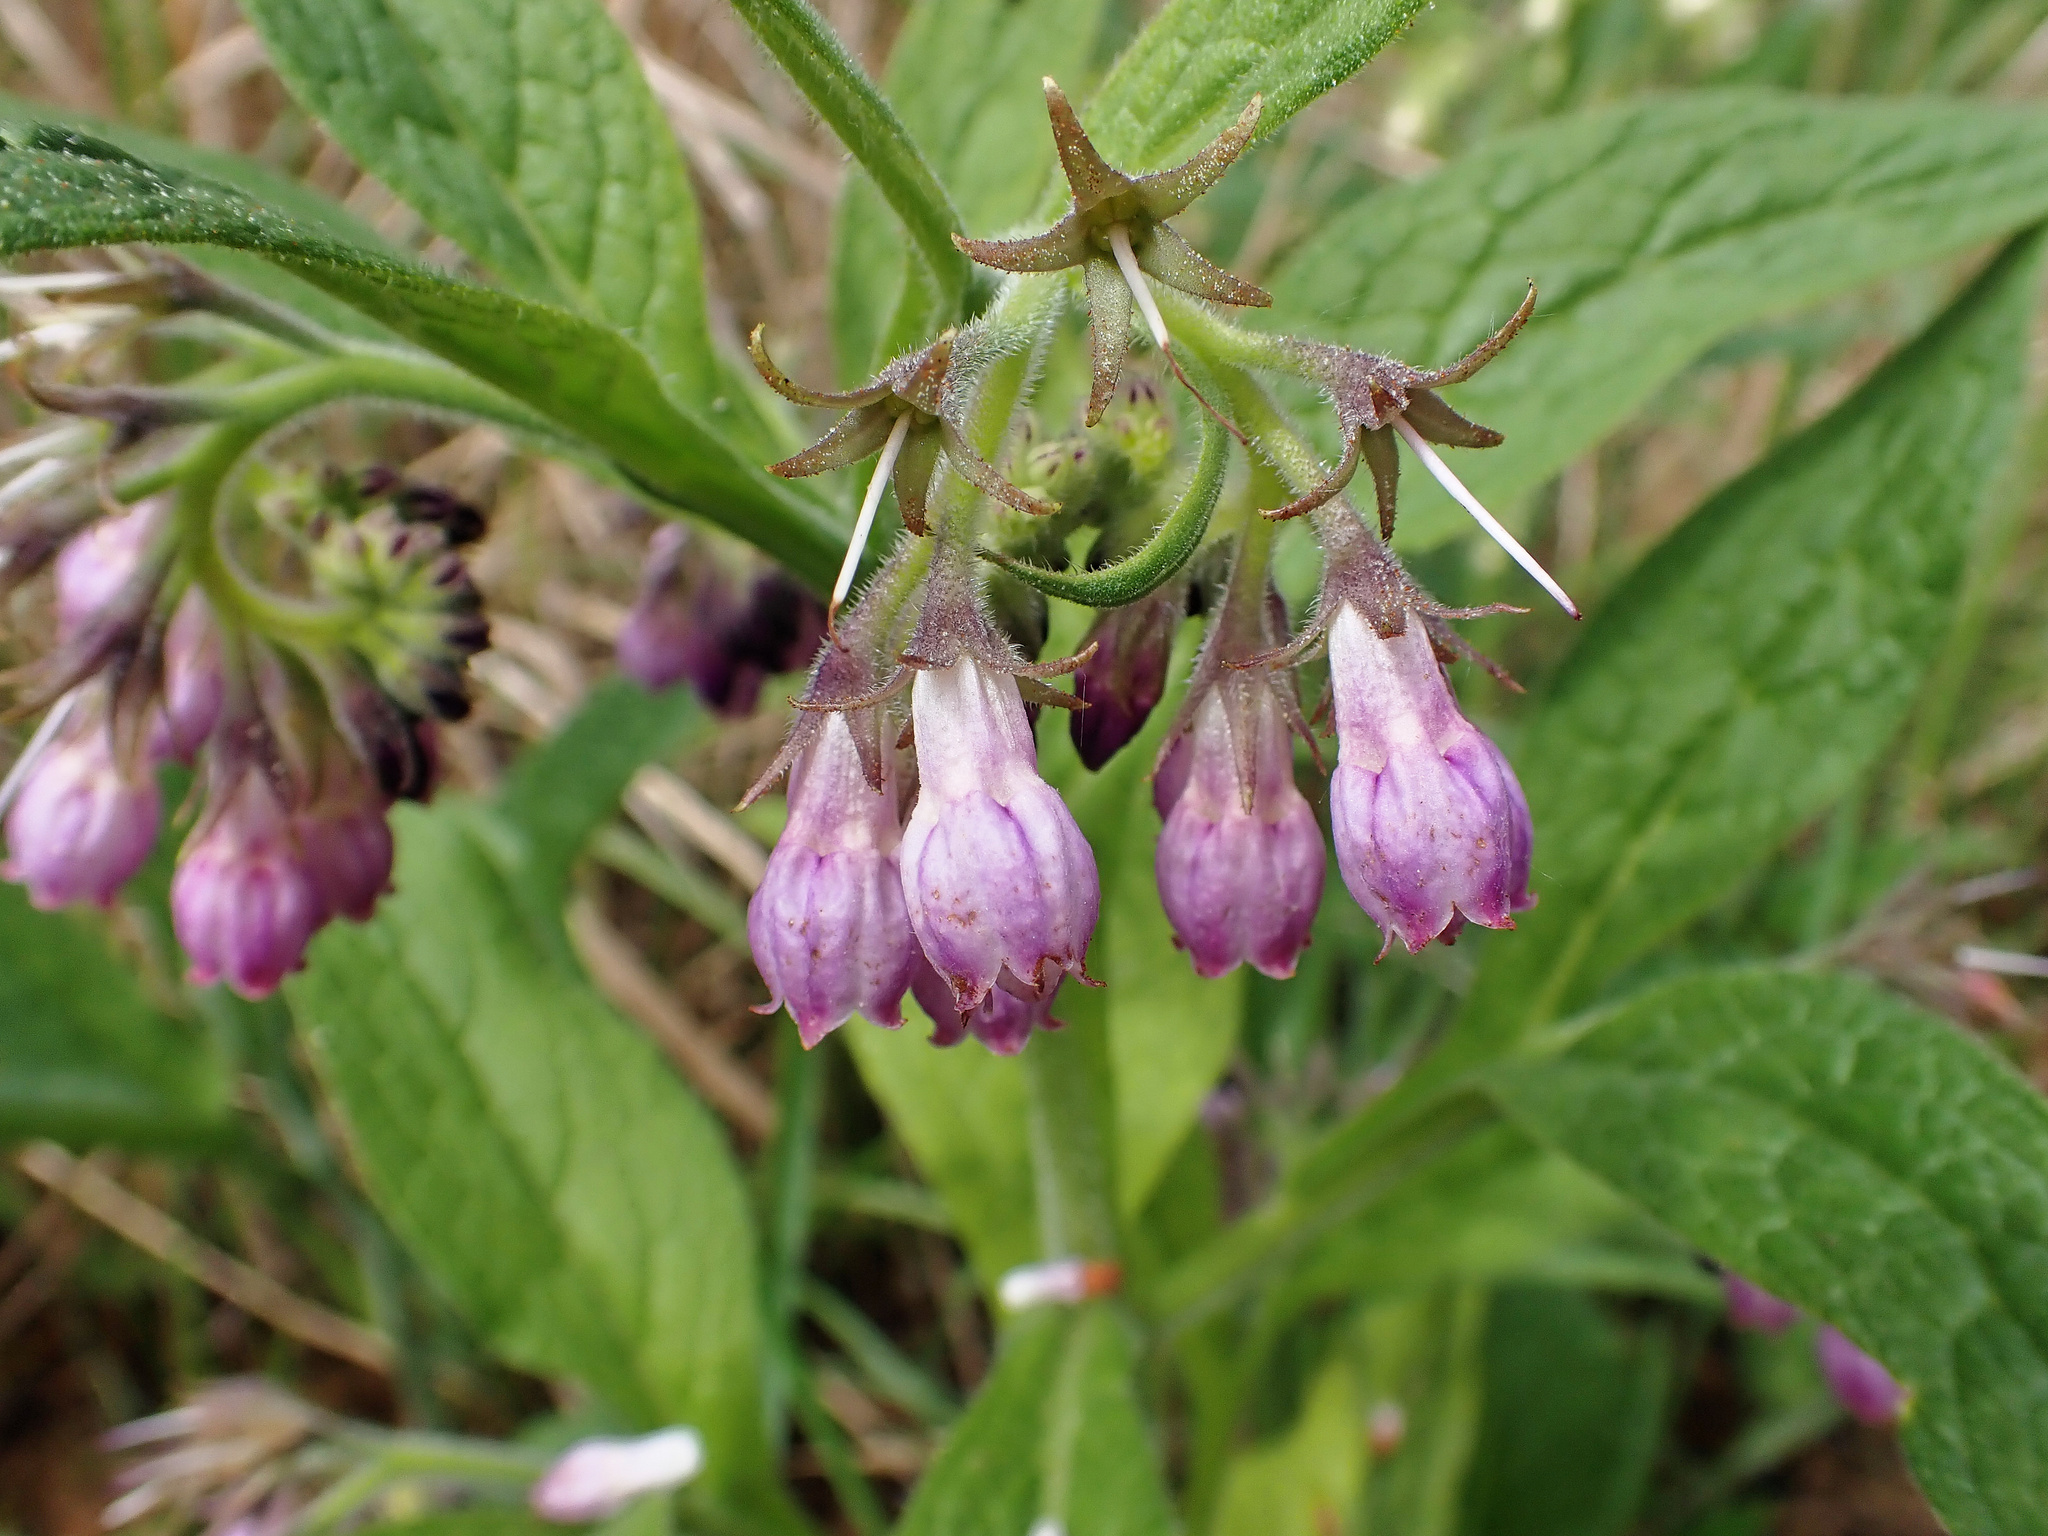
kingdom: Plantae
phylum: Tracheophyta
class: Magnoliopsida
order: Boraginales
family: Boraginaceae
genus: Symphytum
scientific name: Symphytum officinale
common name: Common comfrey
